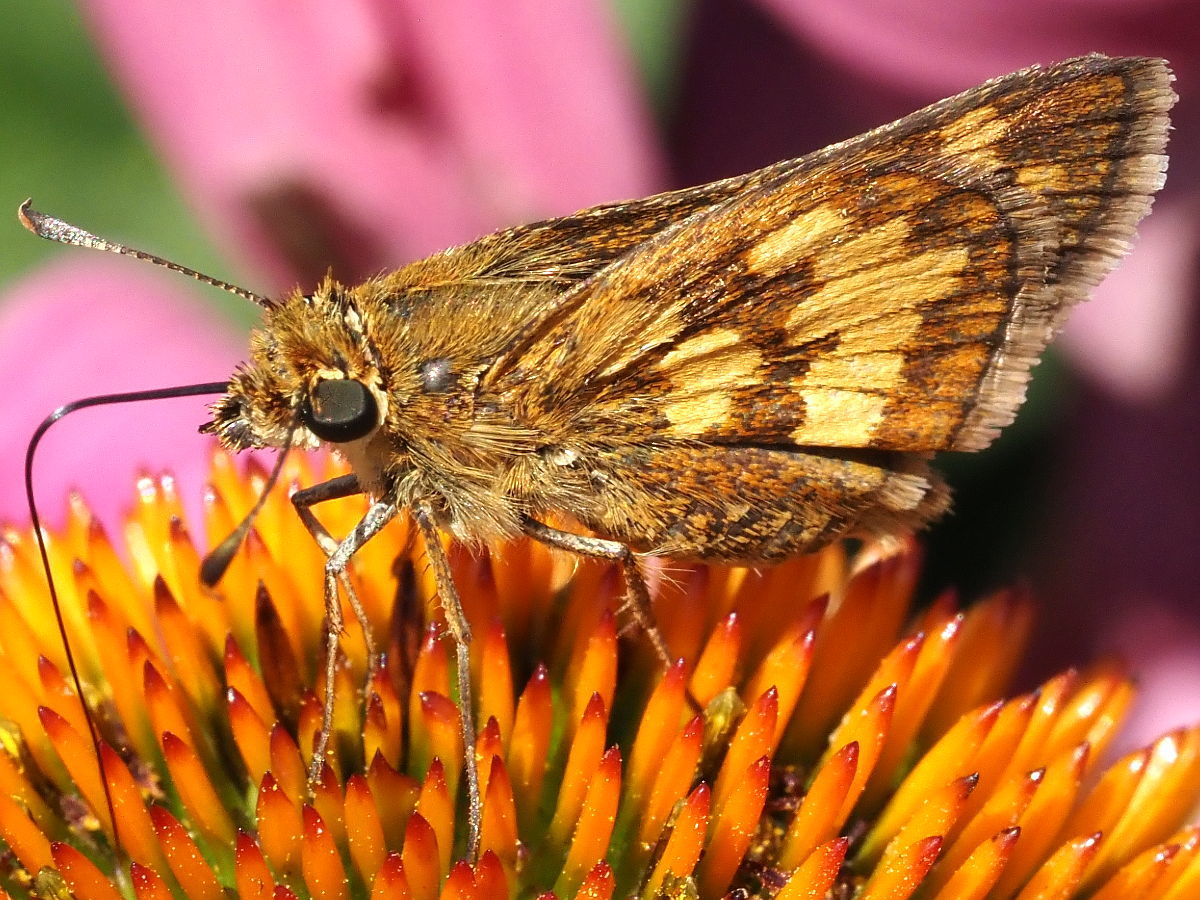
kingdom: Animalia
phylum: Arthropoda
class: Insecta
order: Lepidoptera
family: Hesperiidae
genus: Polites
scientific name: Polites coras
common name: Peck's skipper
